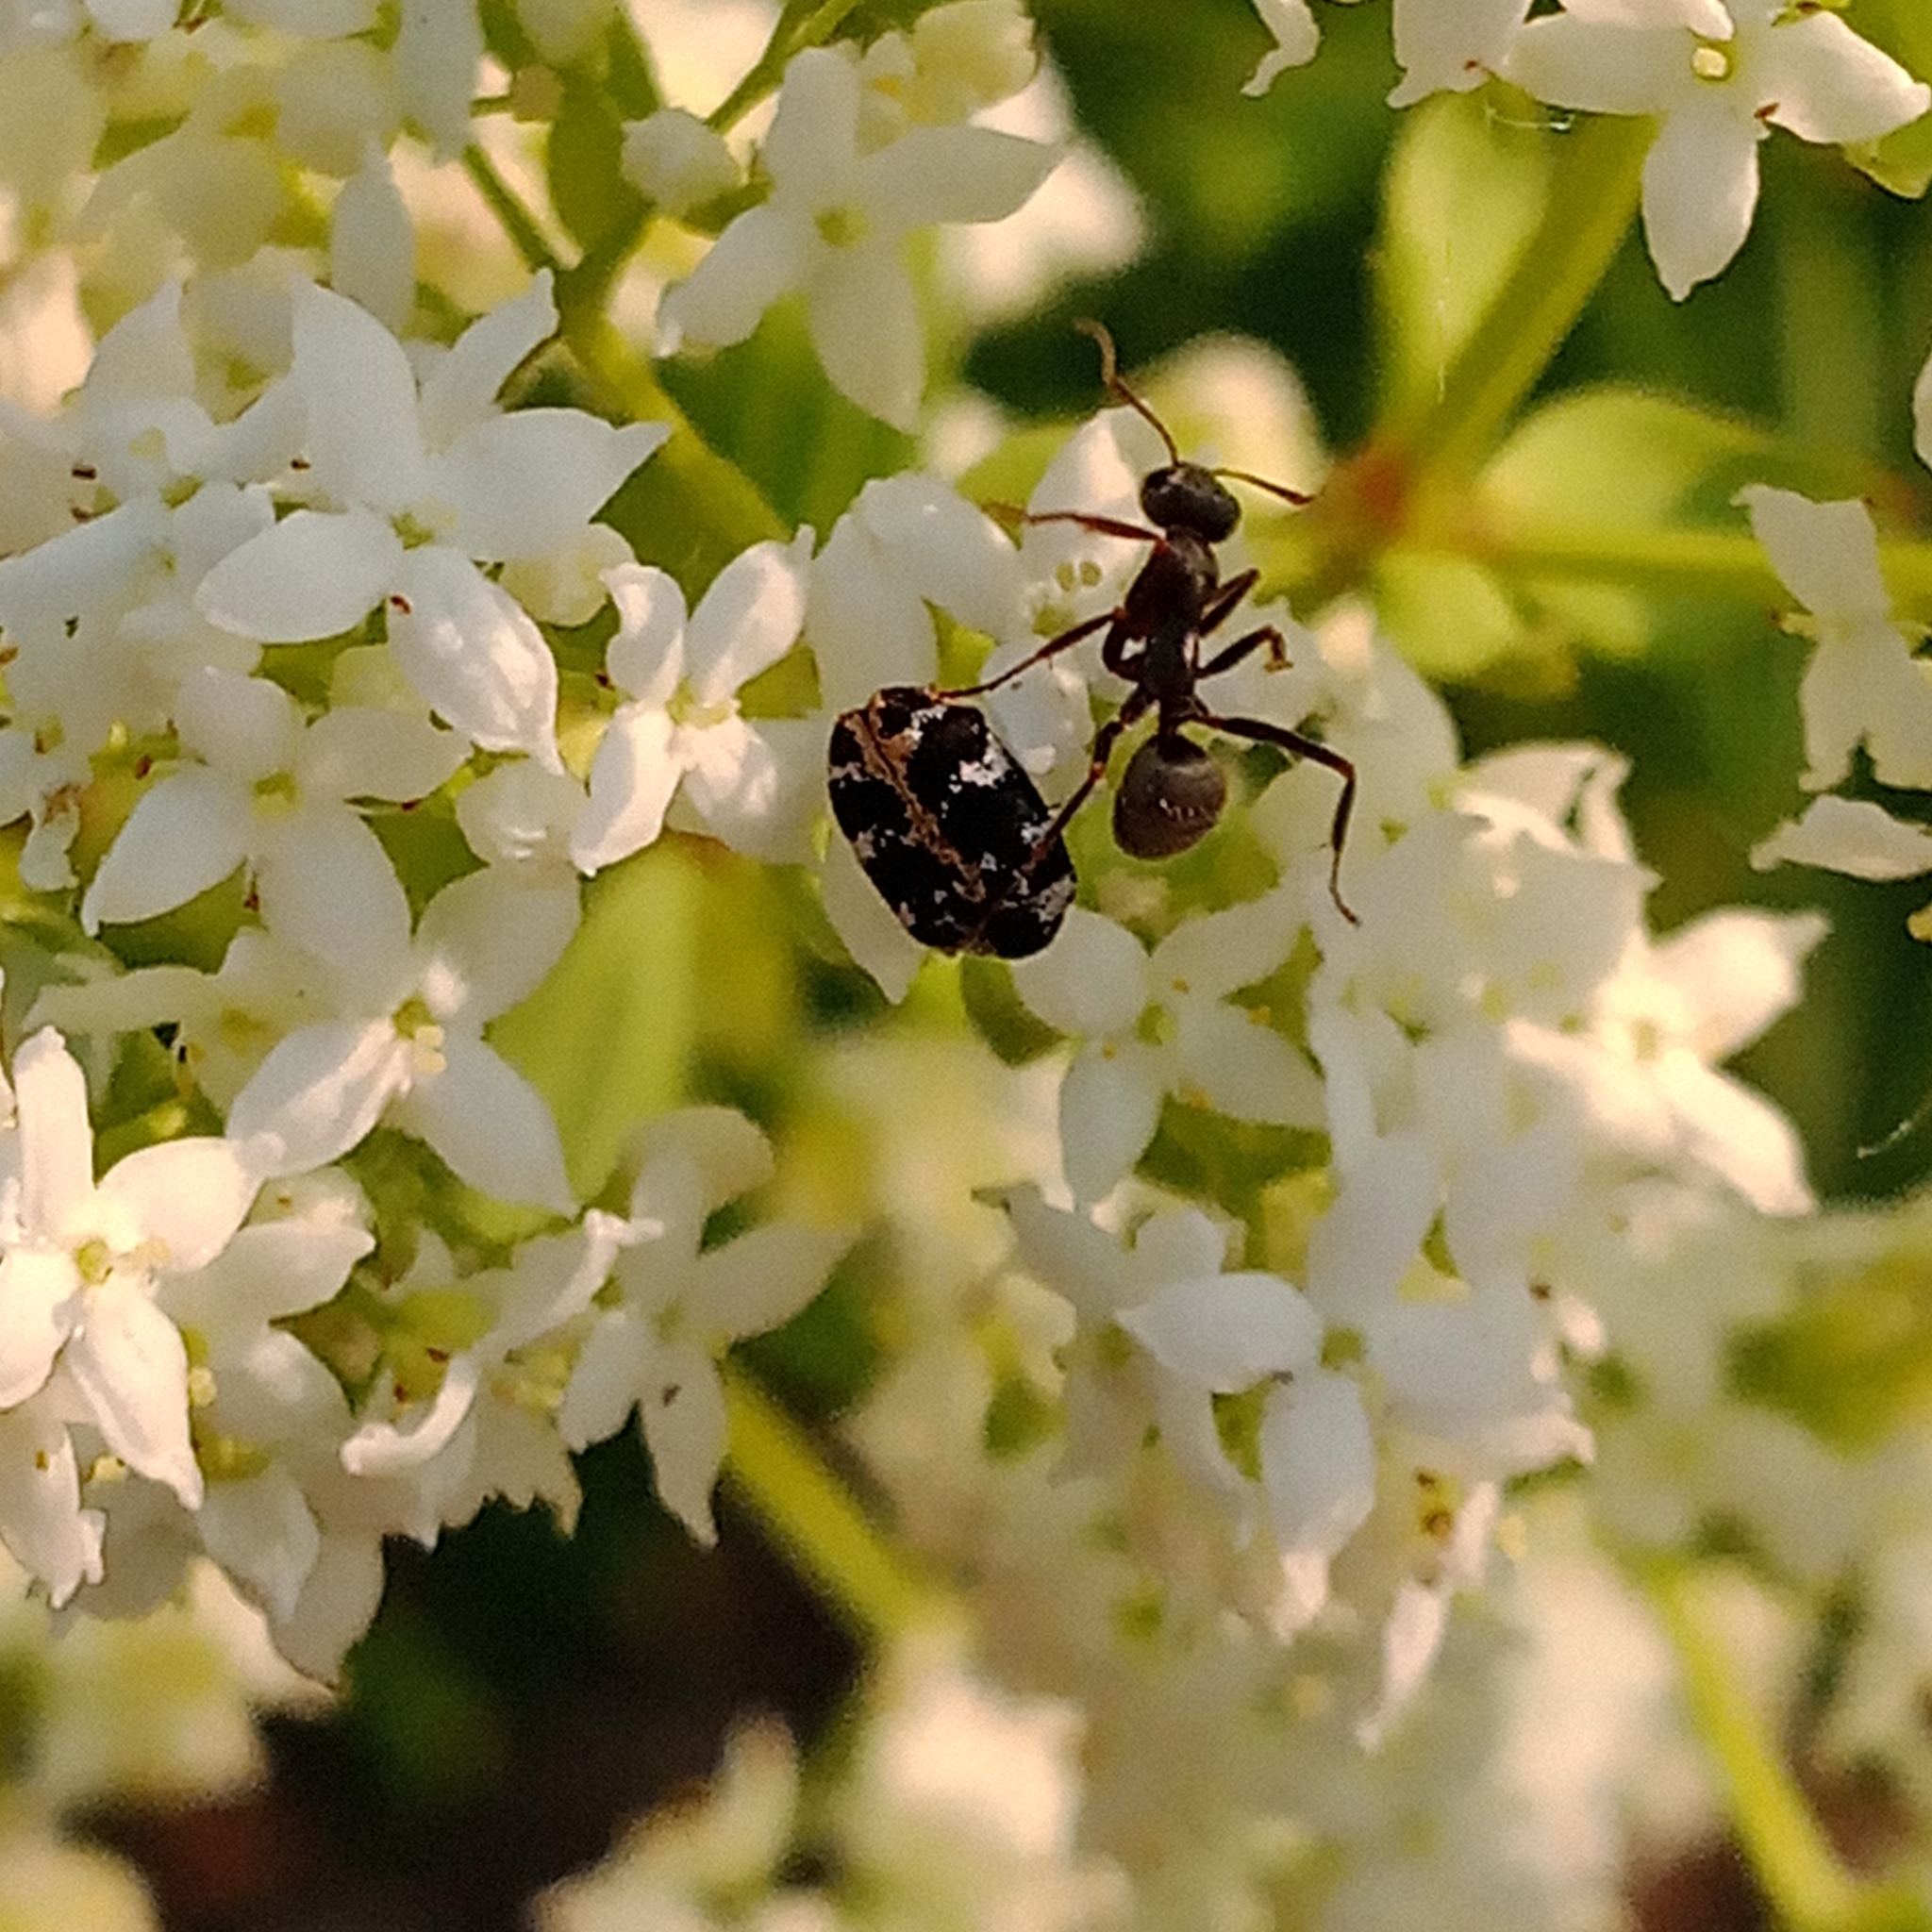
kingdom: Animalia
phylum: Arthropoda
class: Insecta
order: Hymenoptera
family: Formicidae
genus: Formica
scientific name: Formica cinerea
